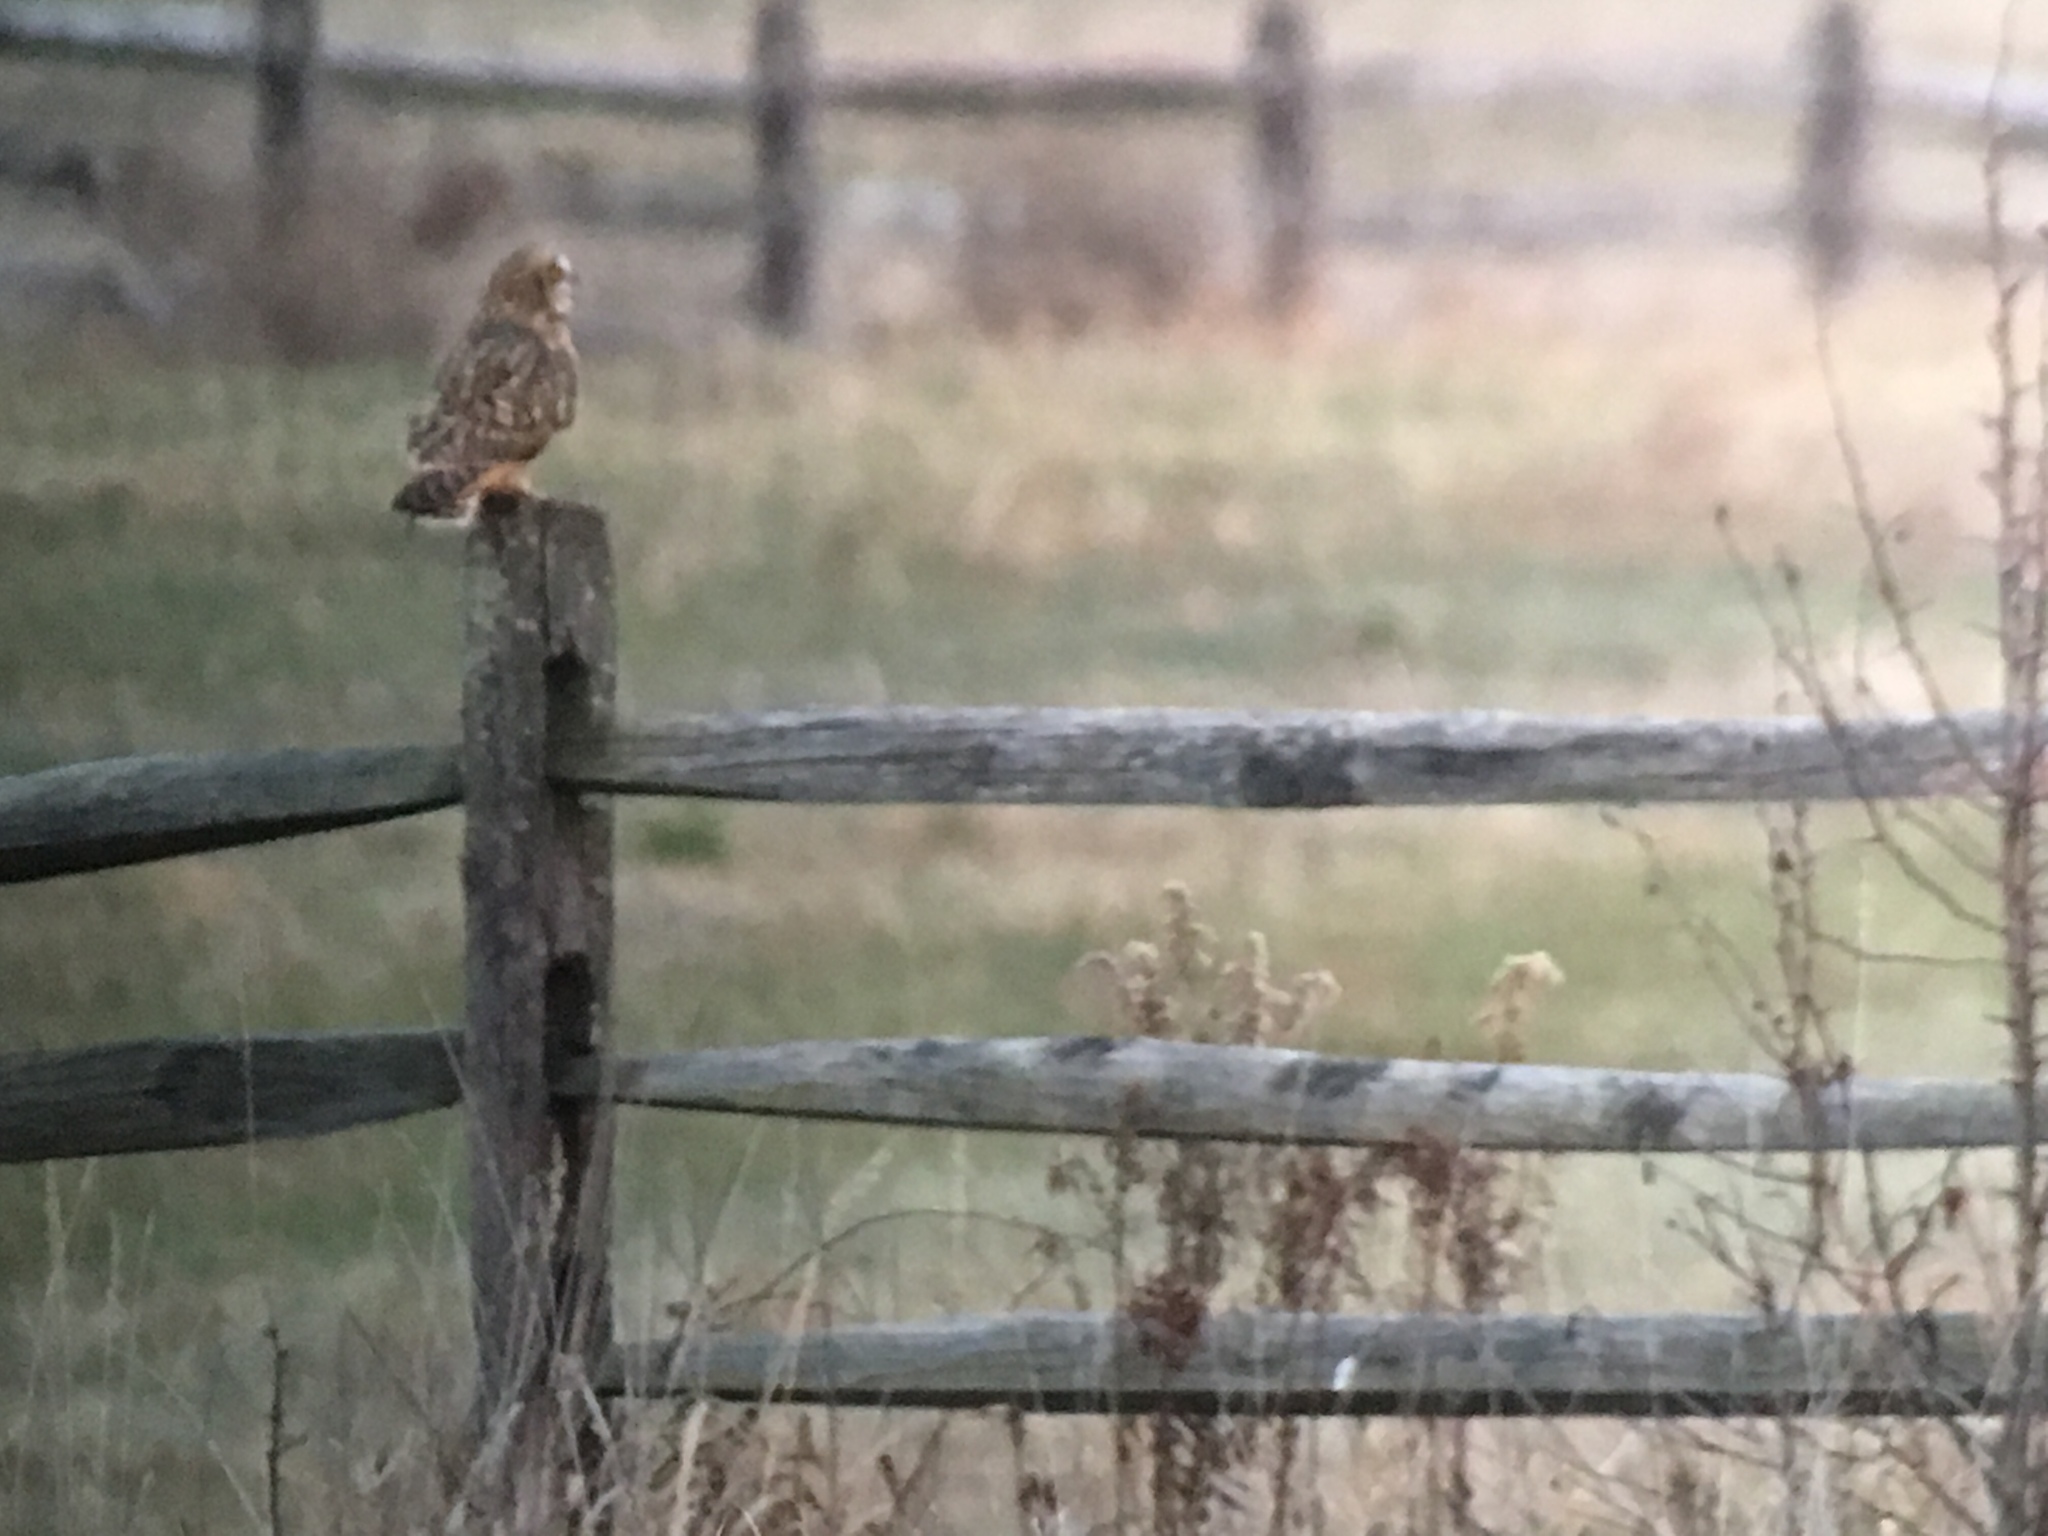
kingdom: Animalia
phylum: Chordata
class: Aves
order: Strigiformes
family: Strigidae
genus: Asio
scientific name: Asio flammeus
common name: Short-eared owl
